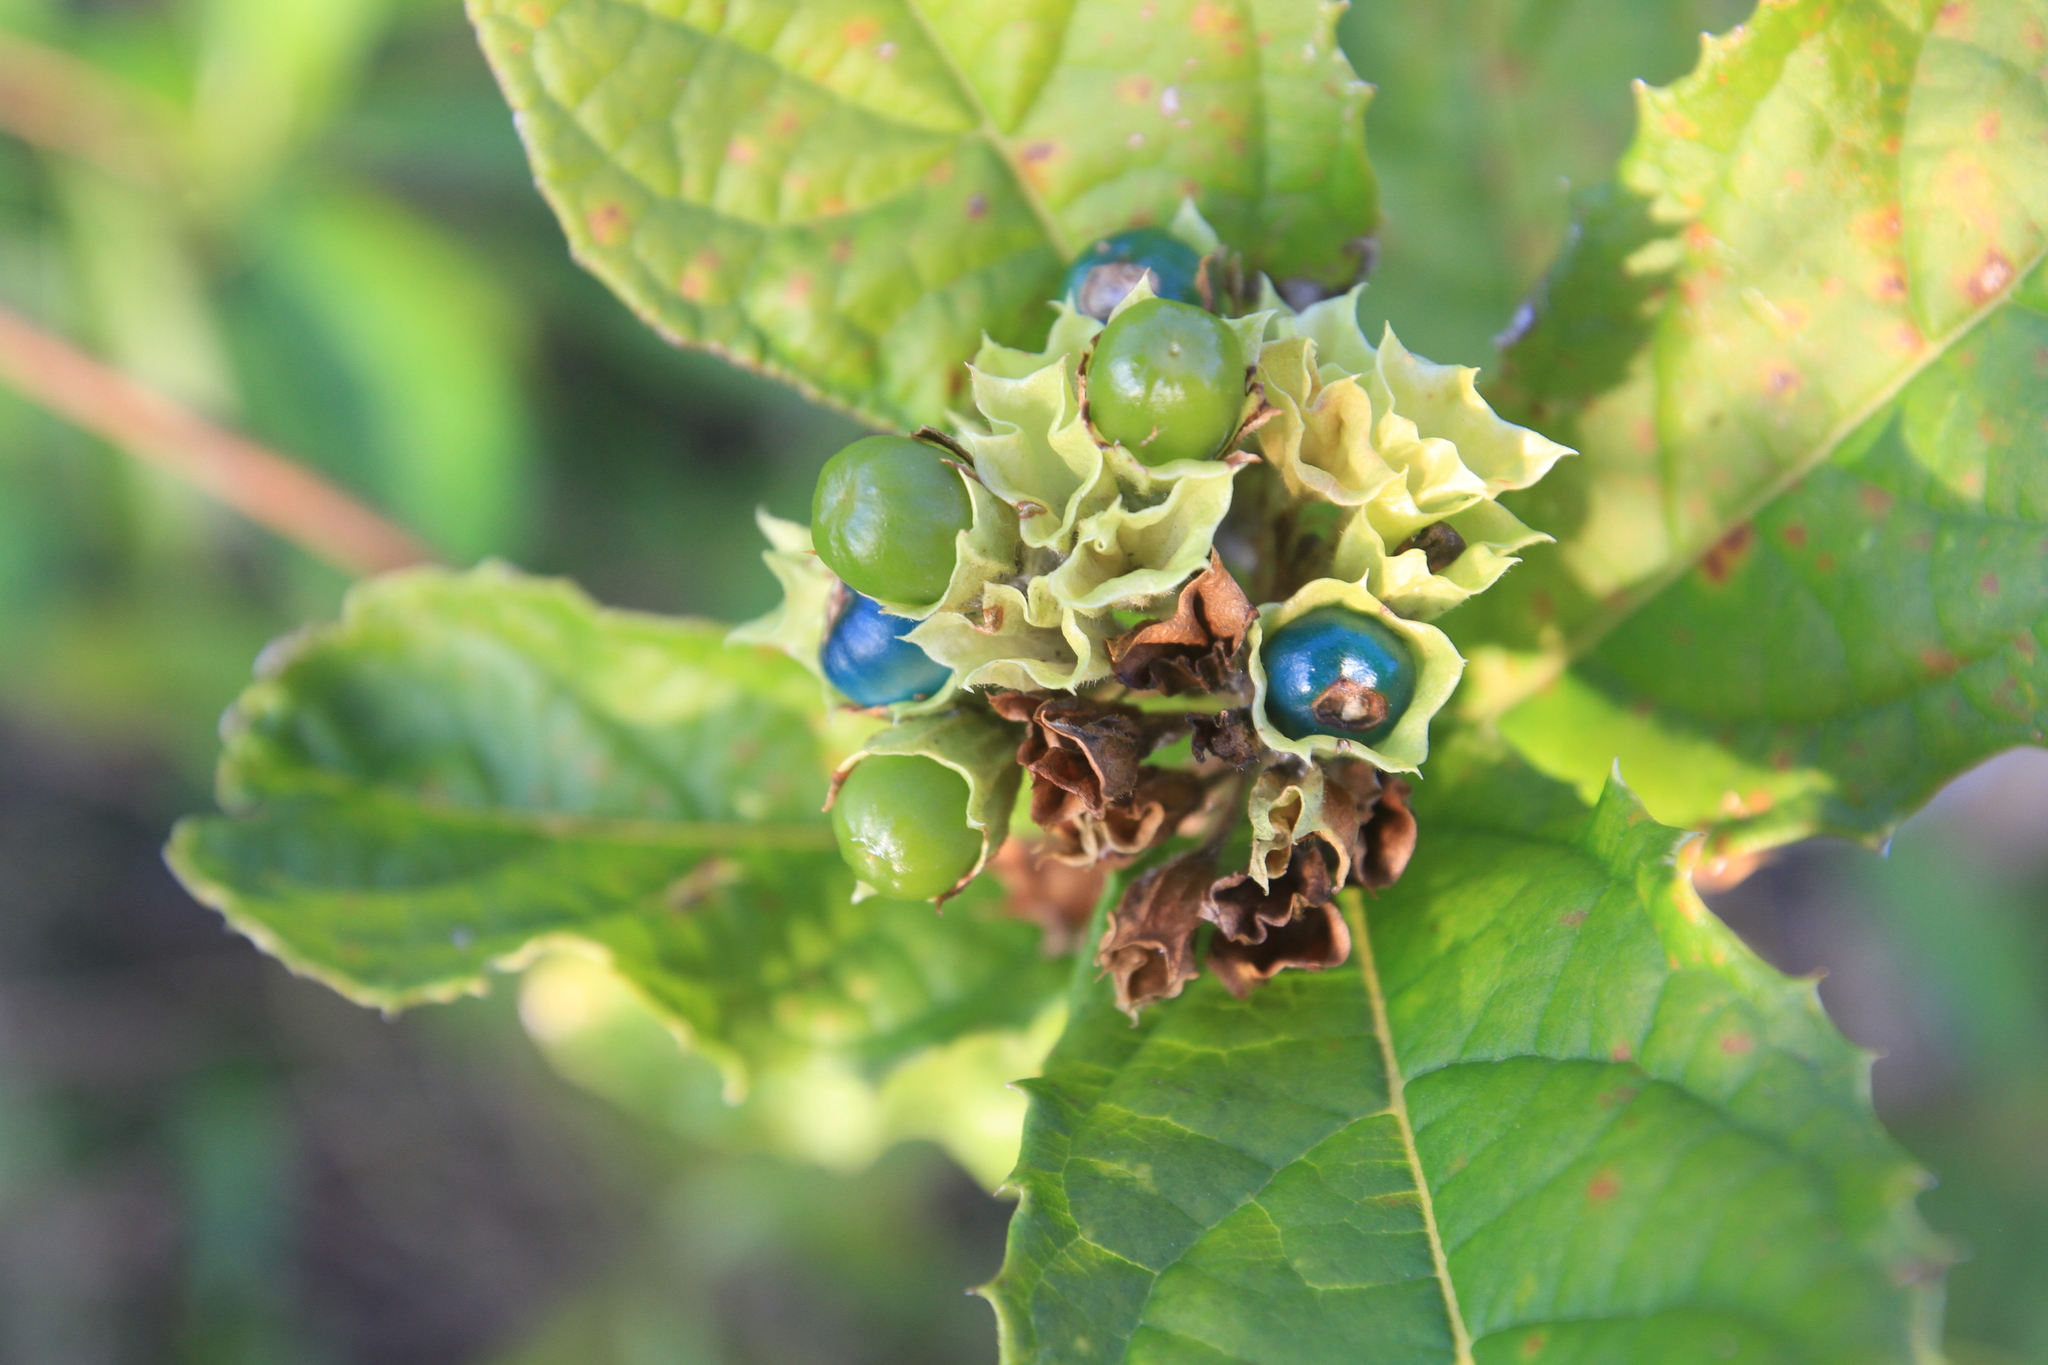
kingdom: Plantae
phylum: Tracheophyta
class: Magnoliopsida
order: Lamiales
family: Lamiaceae
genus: Ovieda
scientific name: Ovieda spinosa
